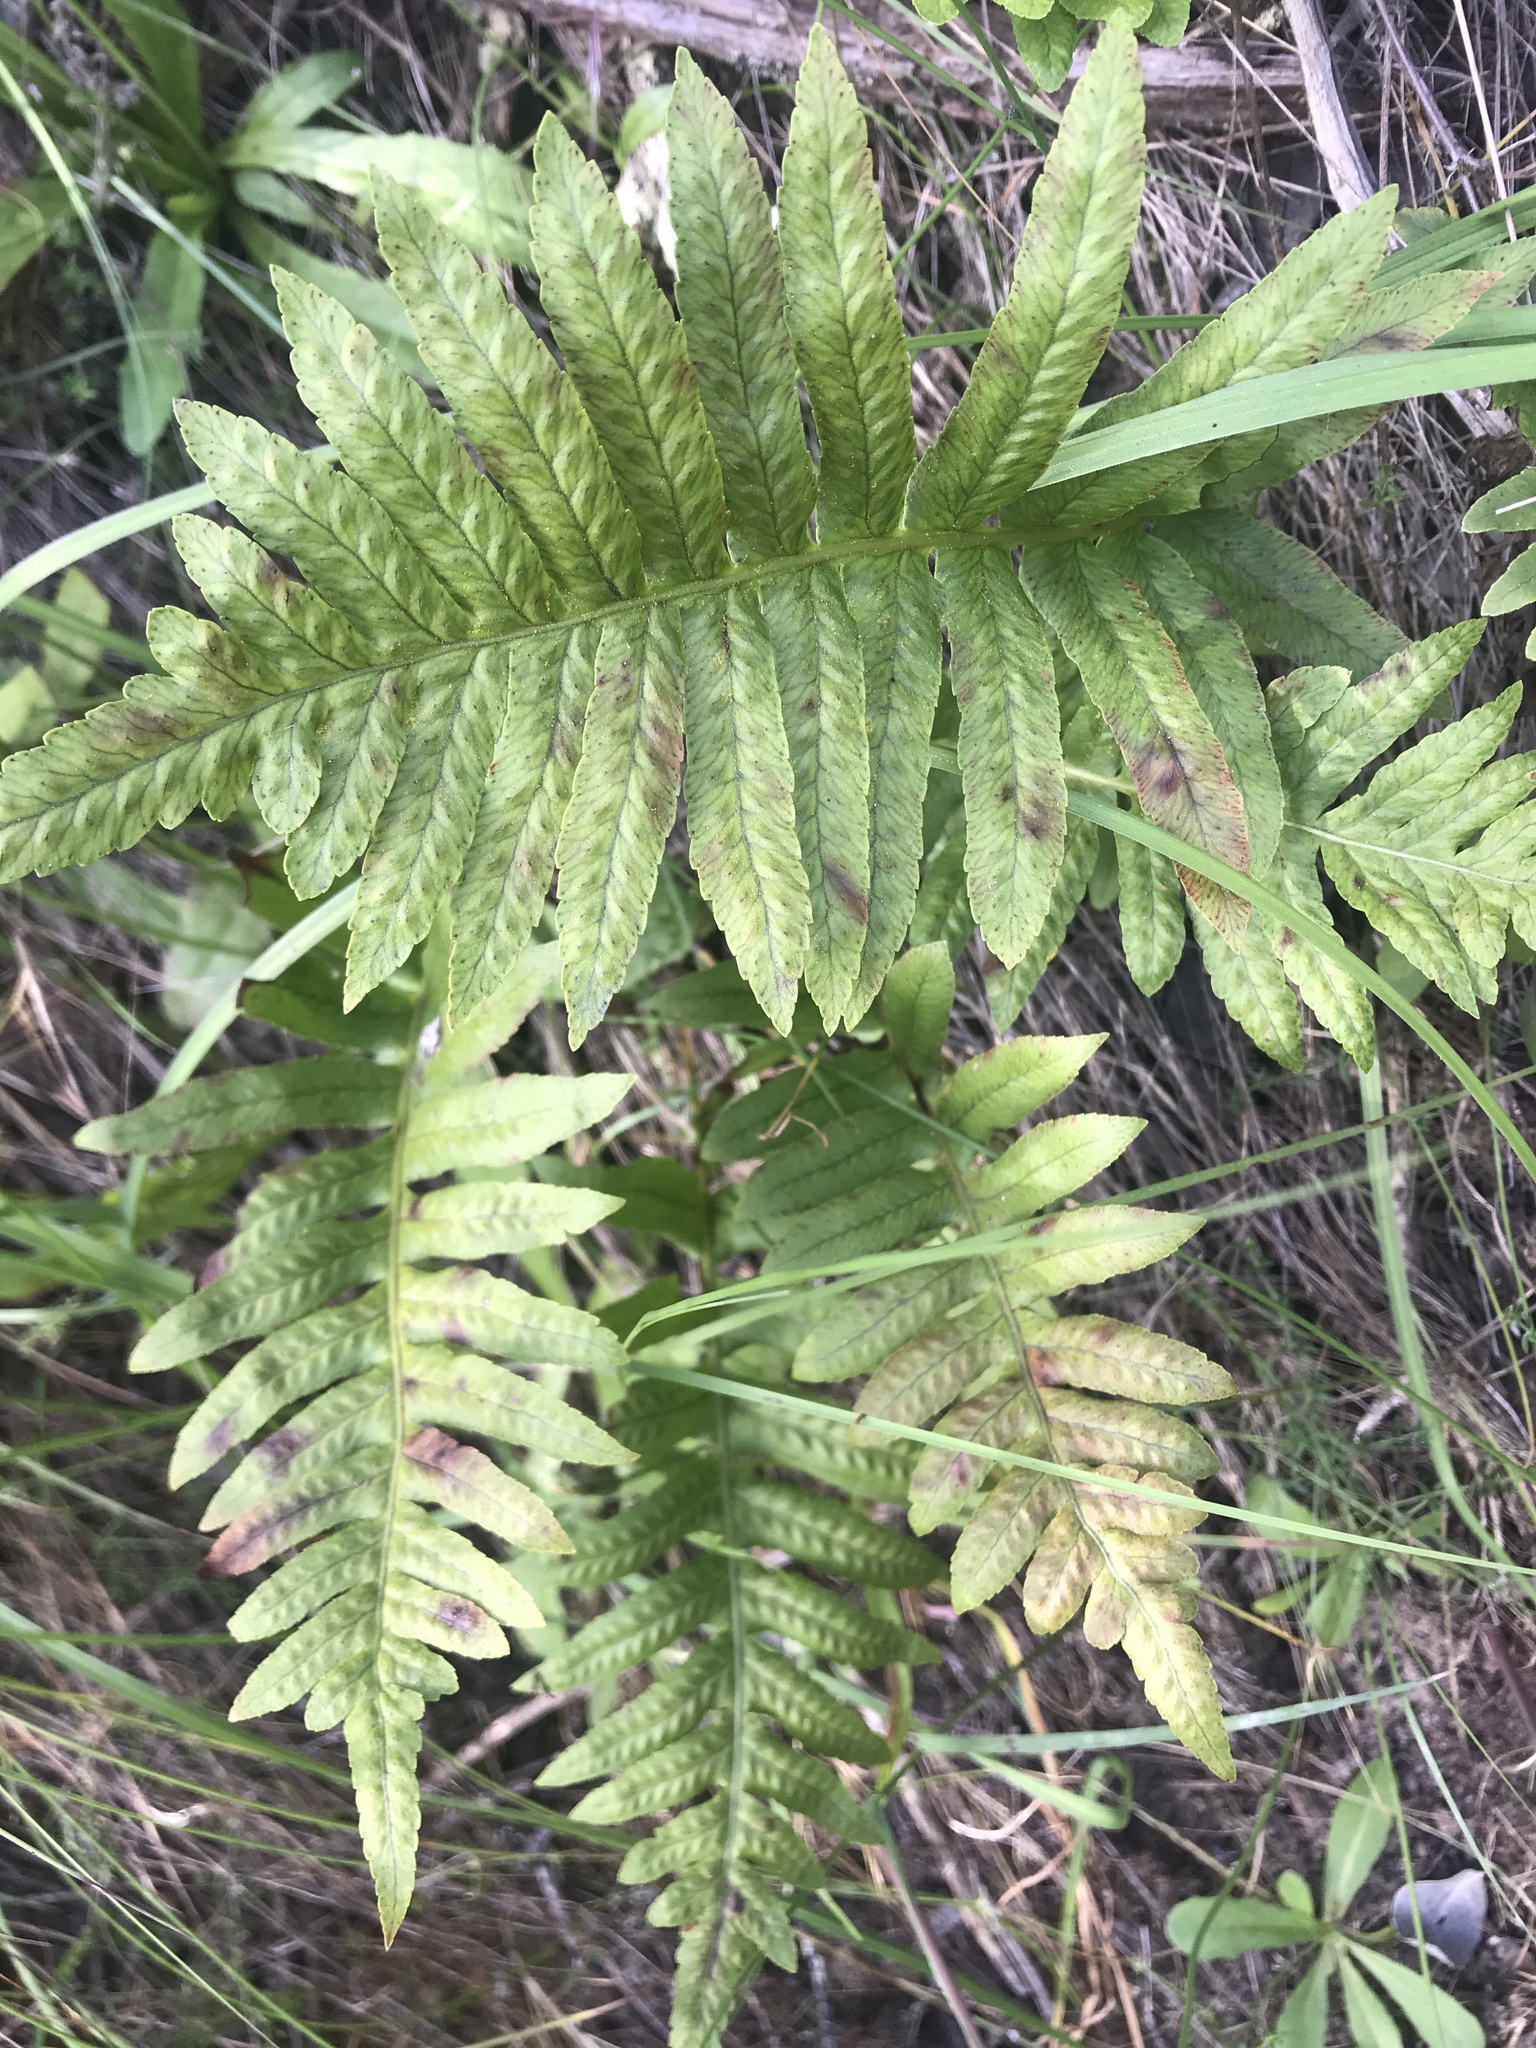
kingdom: Plantae
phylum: Tracheophyta
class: Polypodiopsida
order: Polypodiales
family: Polypodiaceae
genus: Polypodium
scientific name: Polypodium californicum
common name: California polypody
